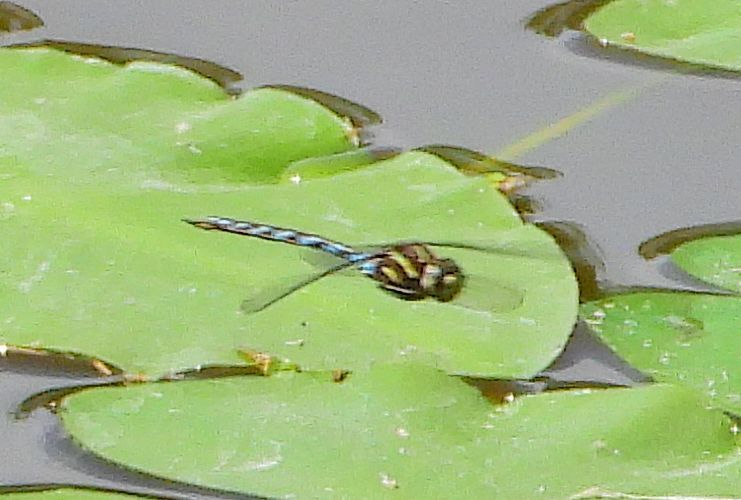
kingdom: Animalia
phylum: Arthropoda
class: Insecta
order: Odonata
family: Aeshnidae
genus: Basiaeschna
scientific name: Basiaeschna janata
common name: Springtime darner
